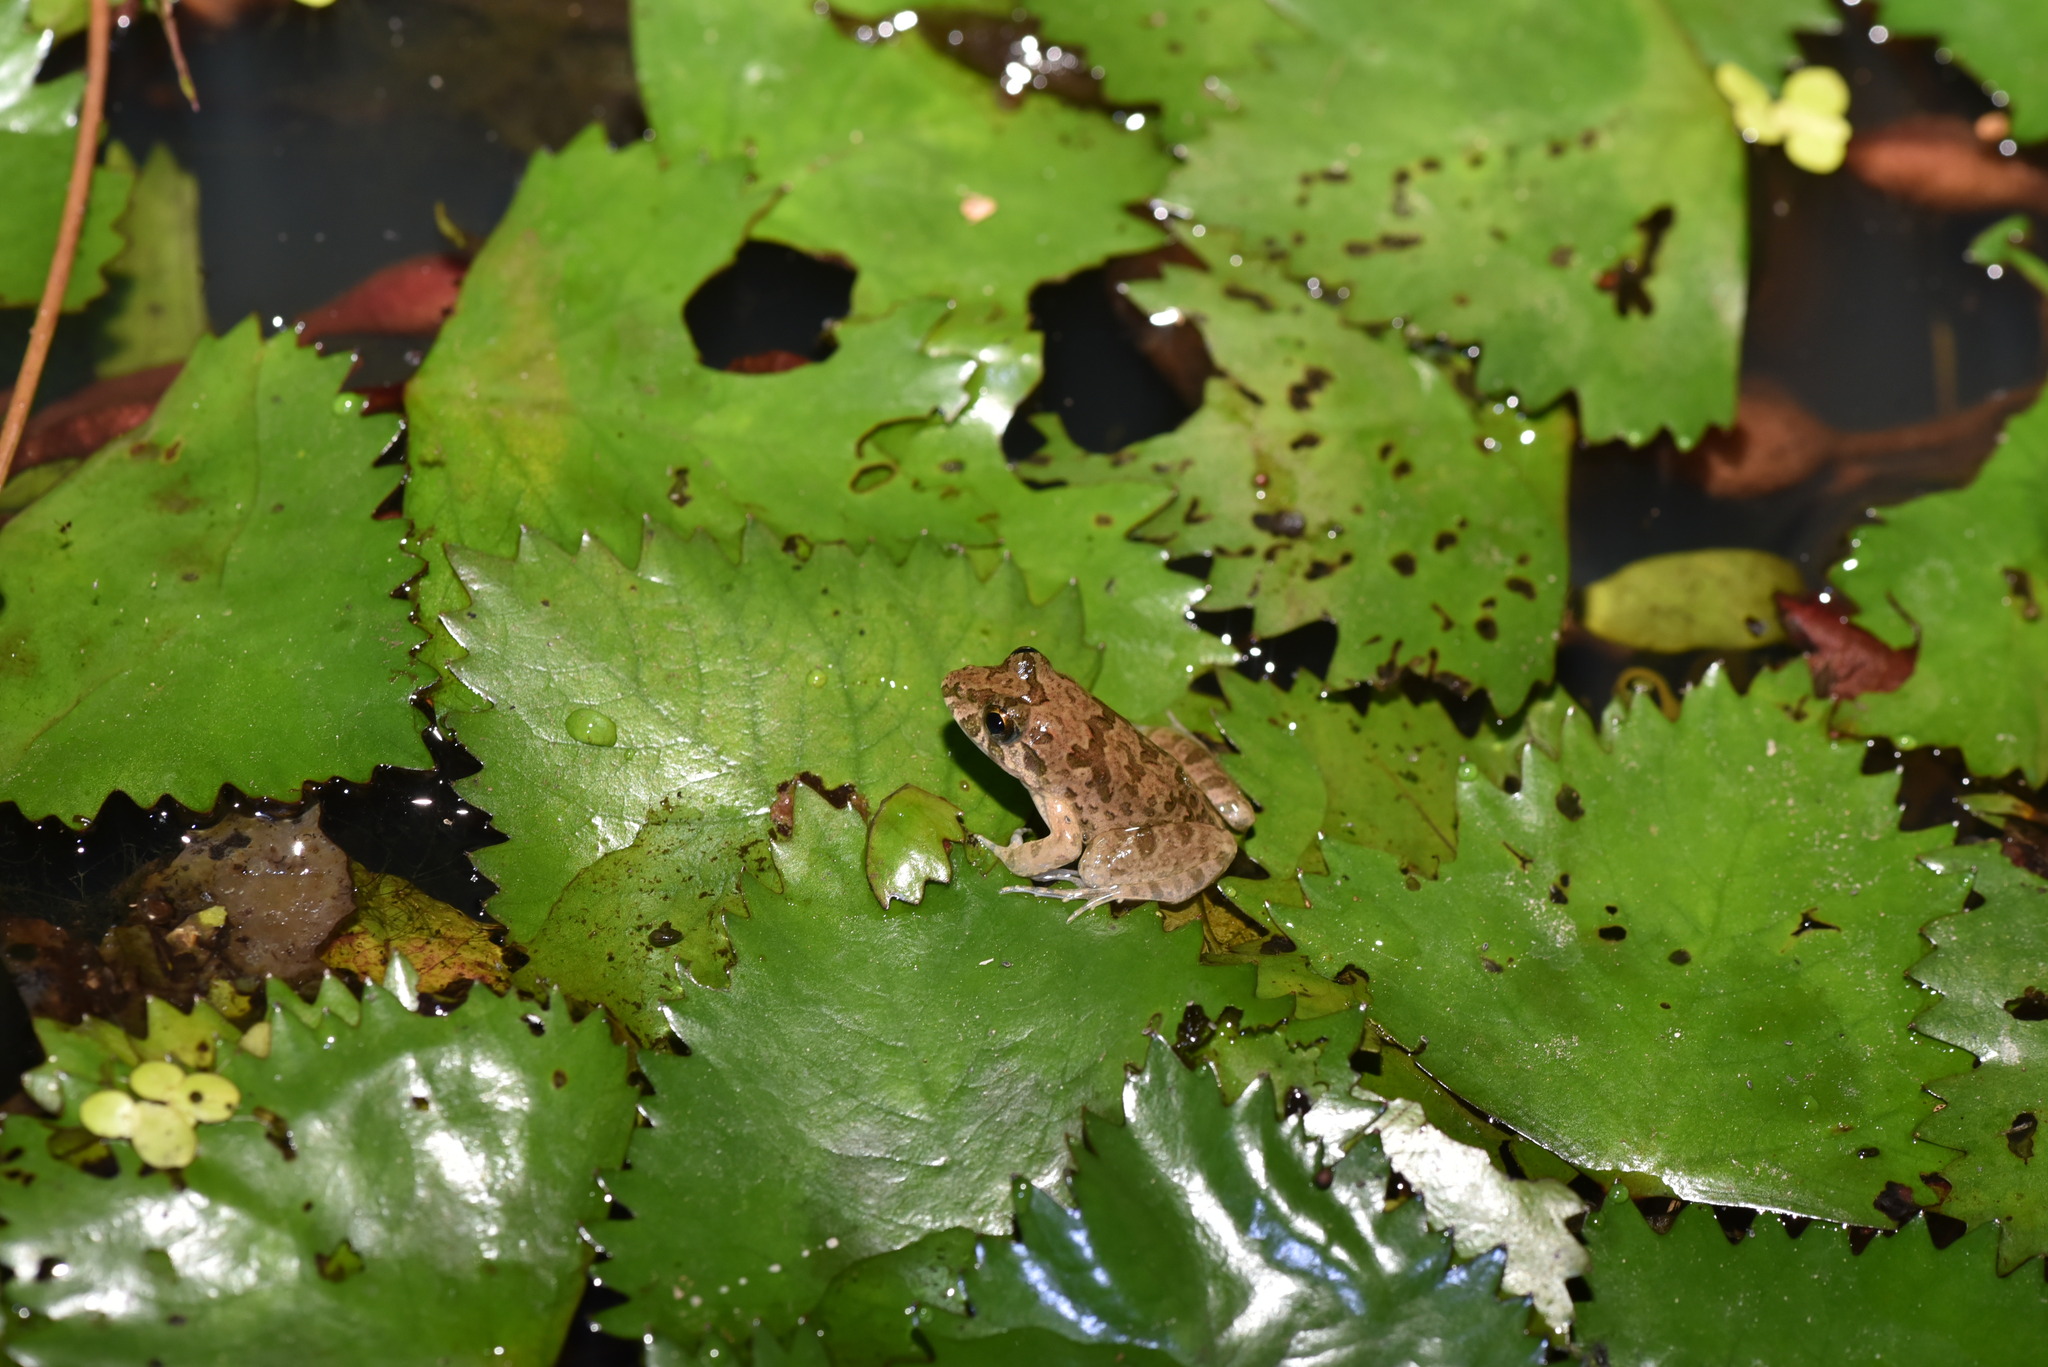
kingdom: Animalia
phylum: Chordata
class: Amphibia
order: Anura
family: Dicroglossidae
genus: Fejervarya
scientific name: Fejervarya limnocharis
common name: Asian grass frog/common pond frog/field frog/grass frog/indian rice frog
